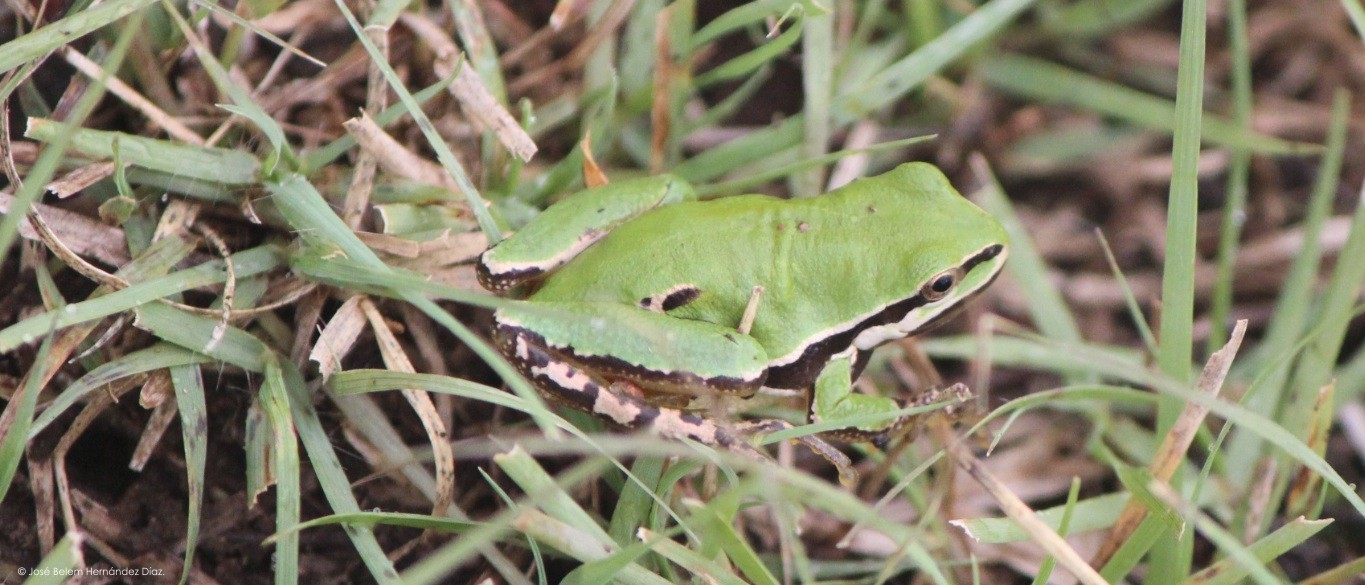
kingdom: Animalia
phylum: Chordata
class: Amphibia
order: Anura
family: Hylidae
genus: Dryophytes
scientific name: Dryophytes eximius
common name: Mountain treefrog
